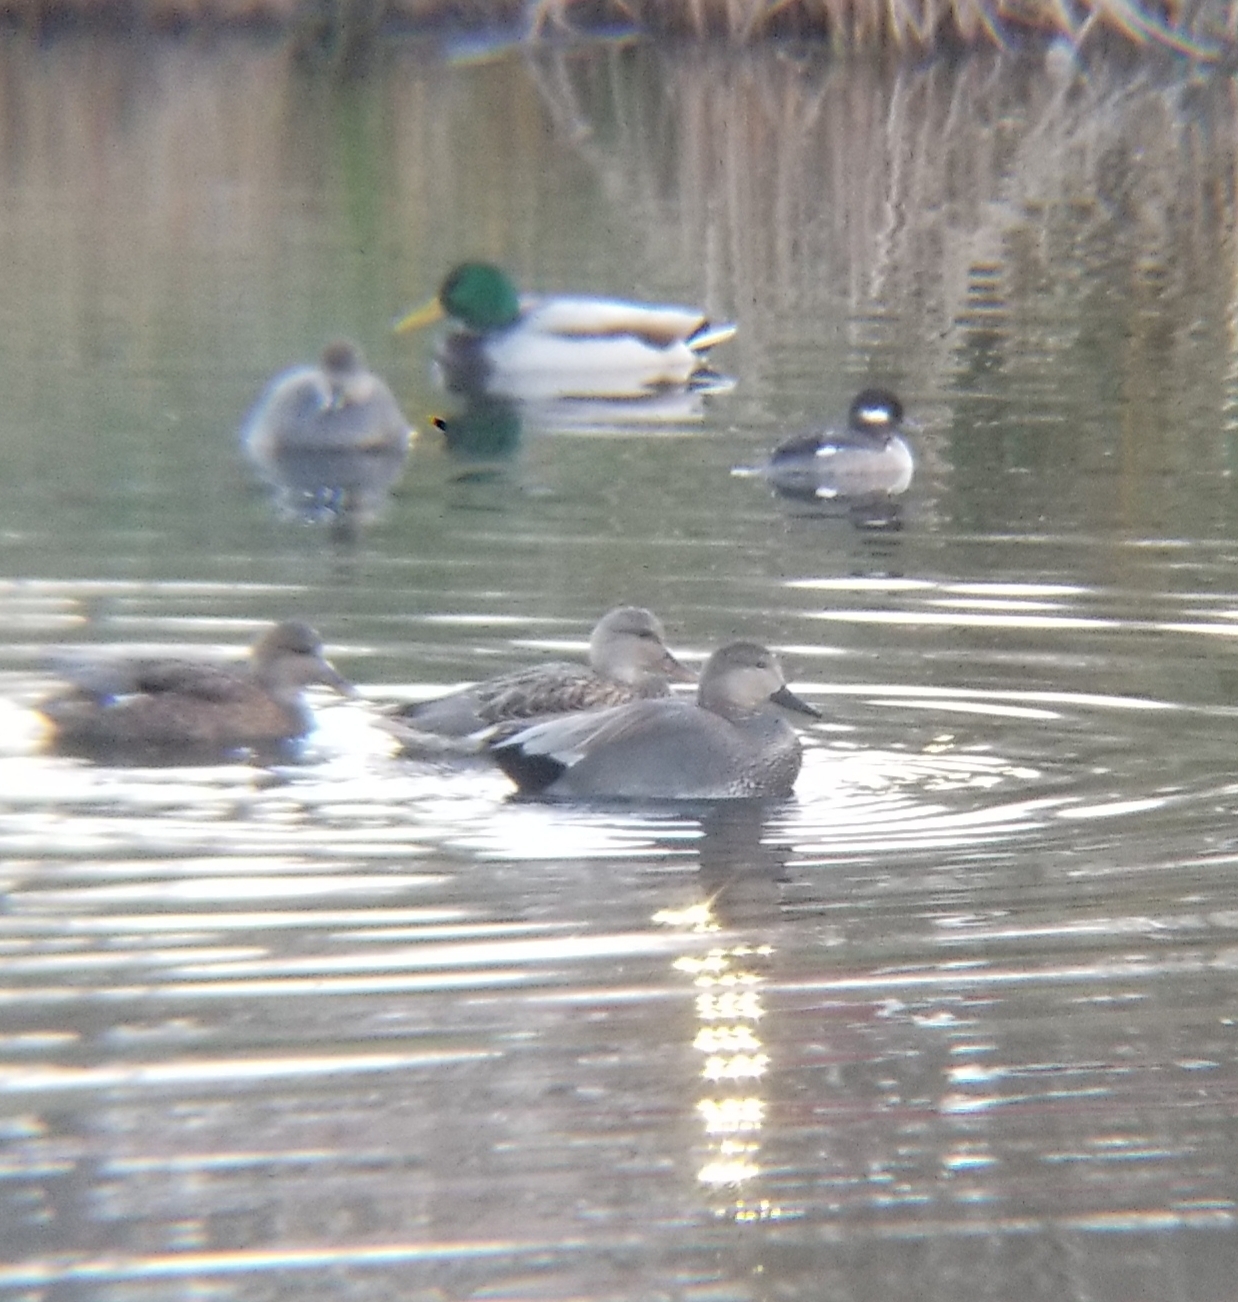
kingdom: Animalia
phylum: Chordata
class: Aves
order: Anseriformes
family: Anatidae
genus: Mareca
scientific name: Mareca strepera
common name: Gadwall
